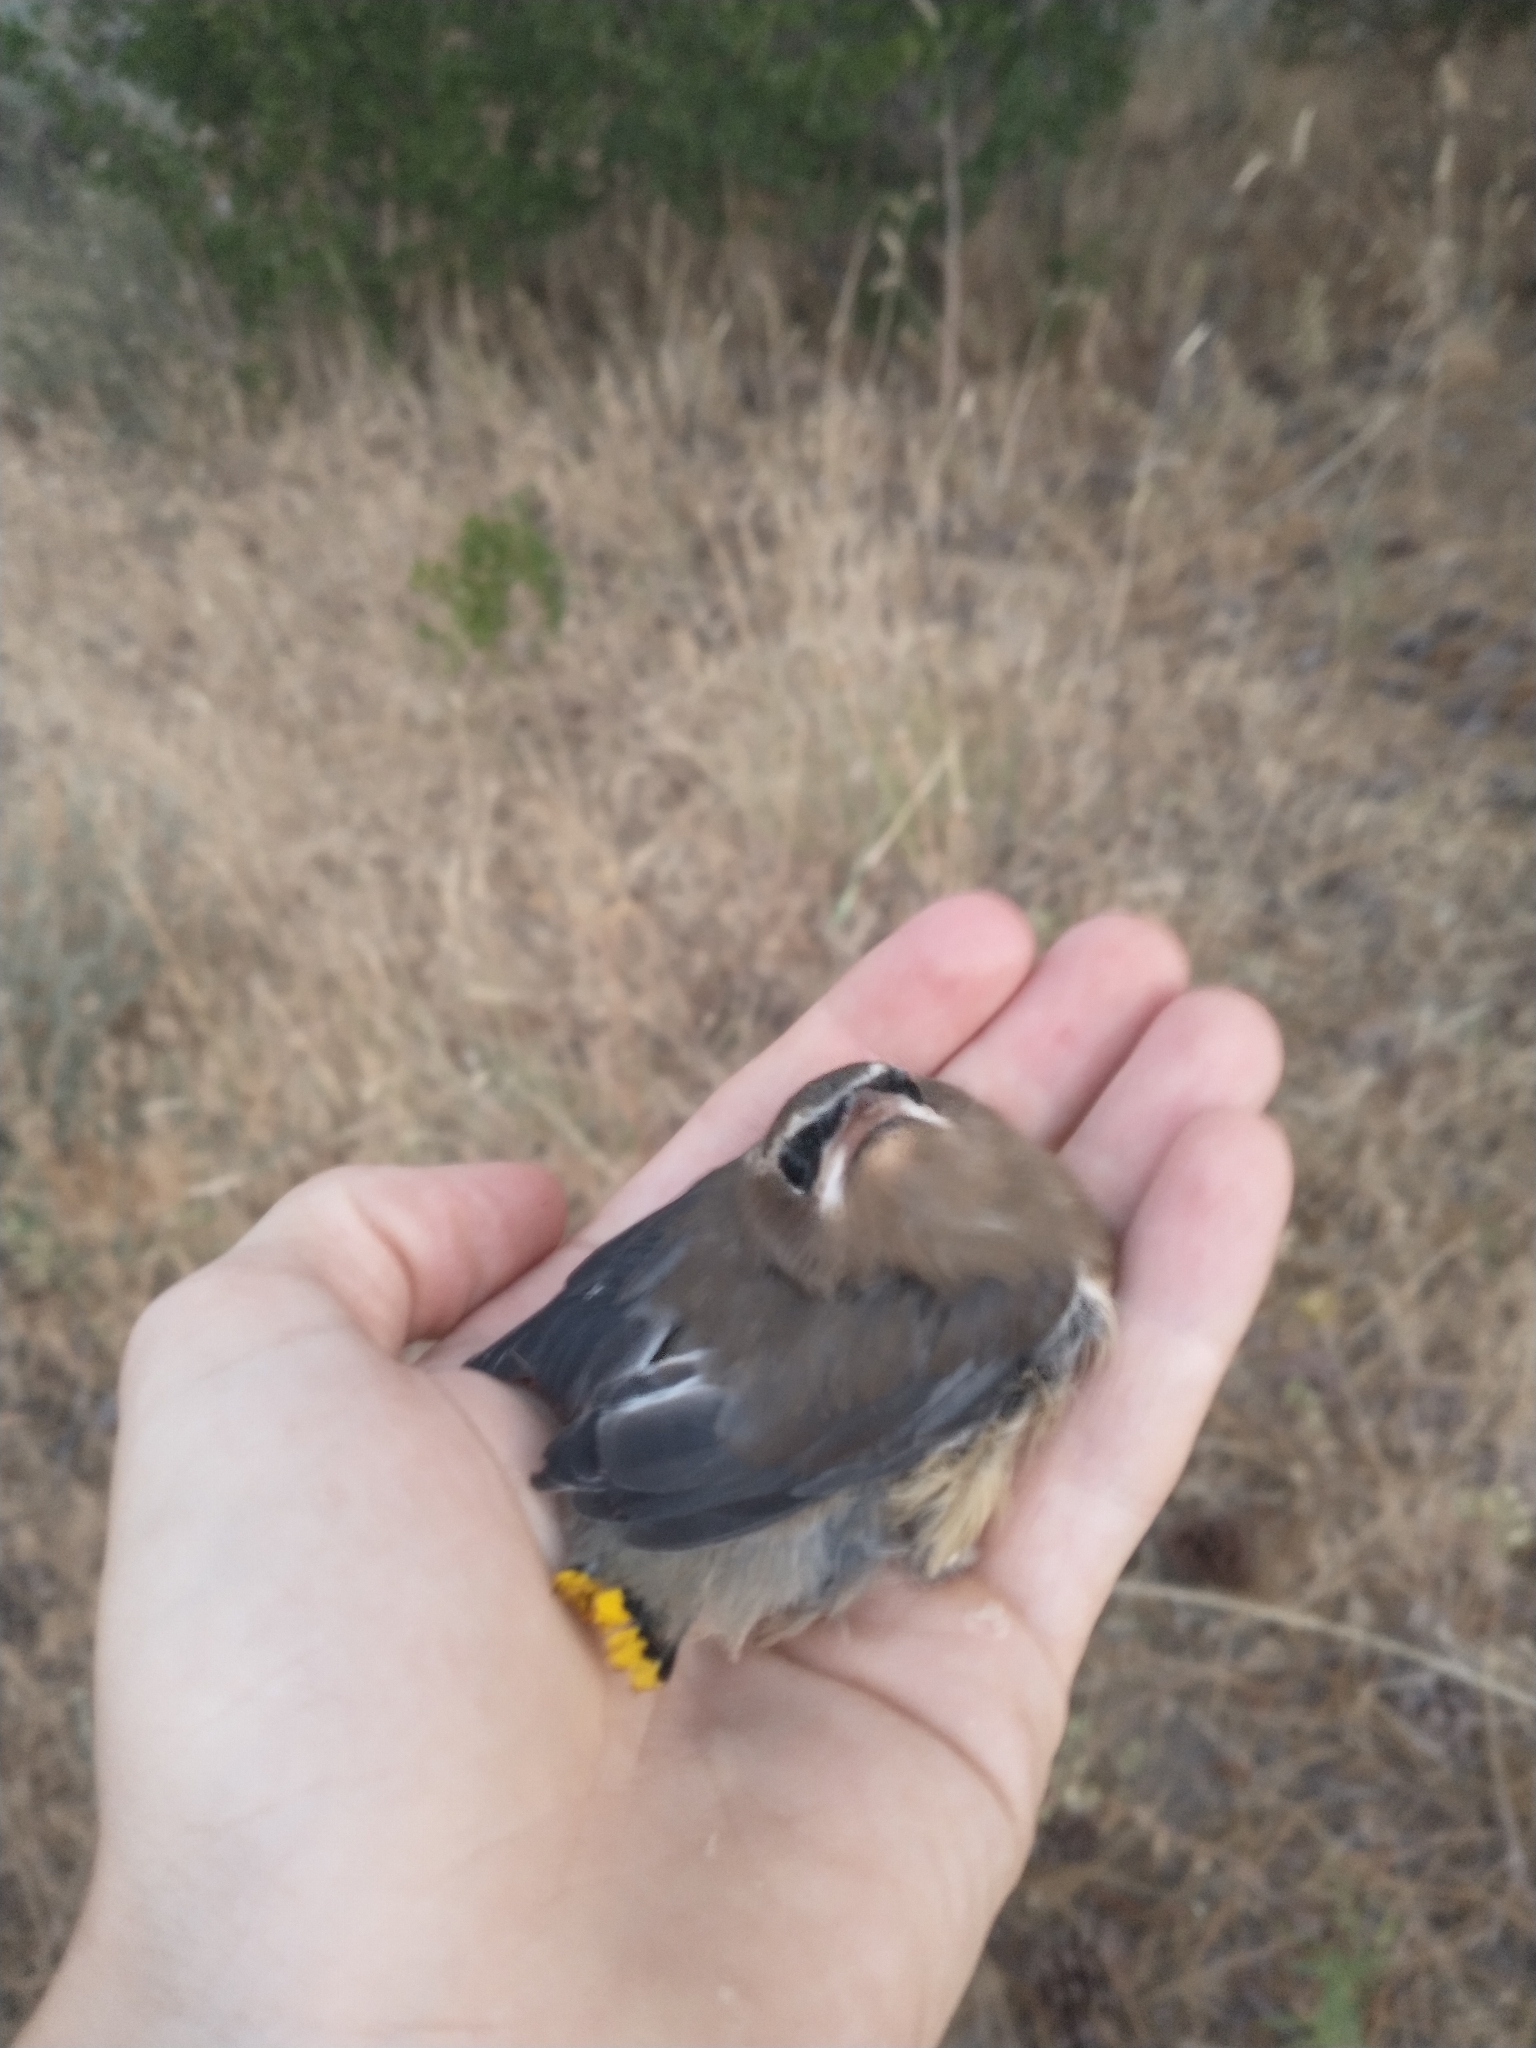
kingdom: Animalia
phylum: Chordata
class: Aves
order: Passeriformes
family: Bombycillidae
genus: Bombycilla
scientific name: Bombycilla cedrorum
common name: Cedar waxwing
